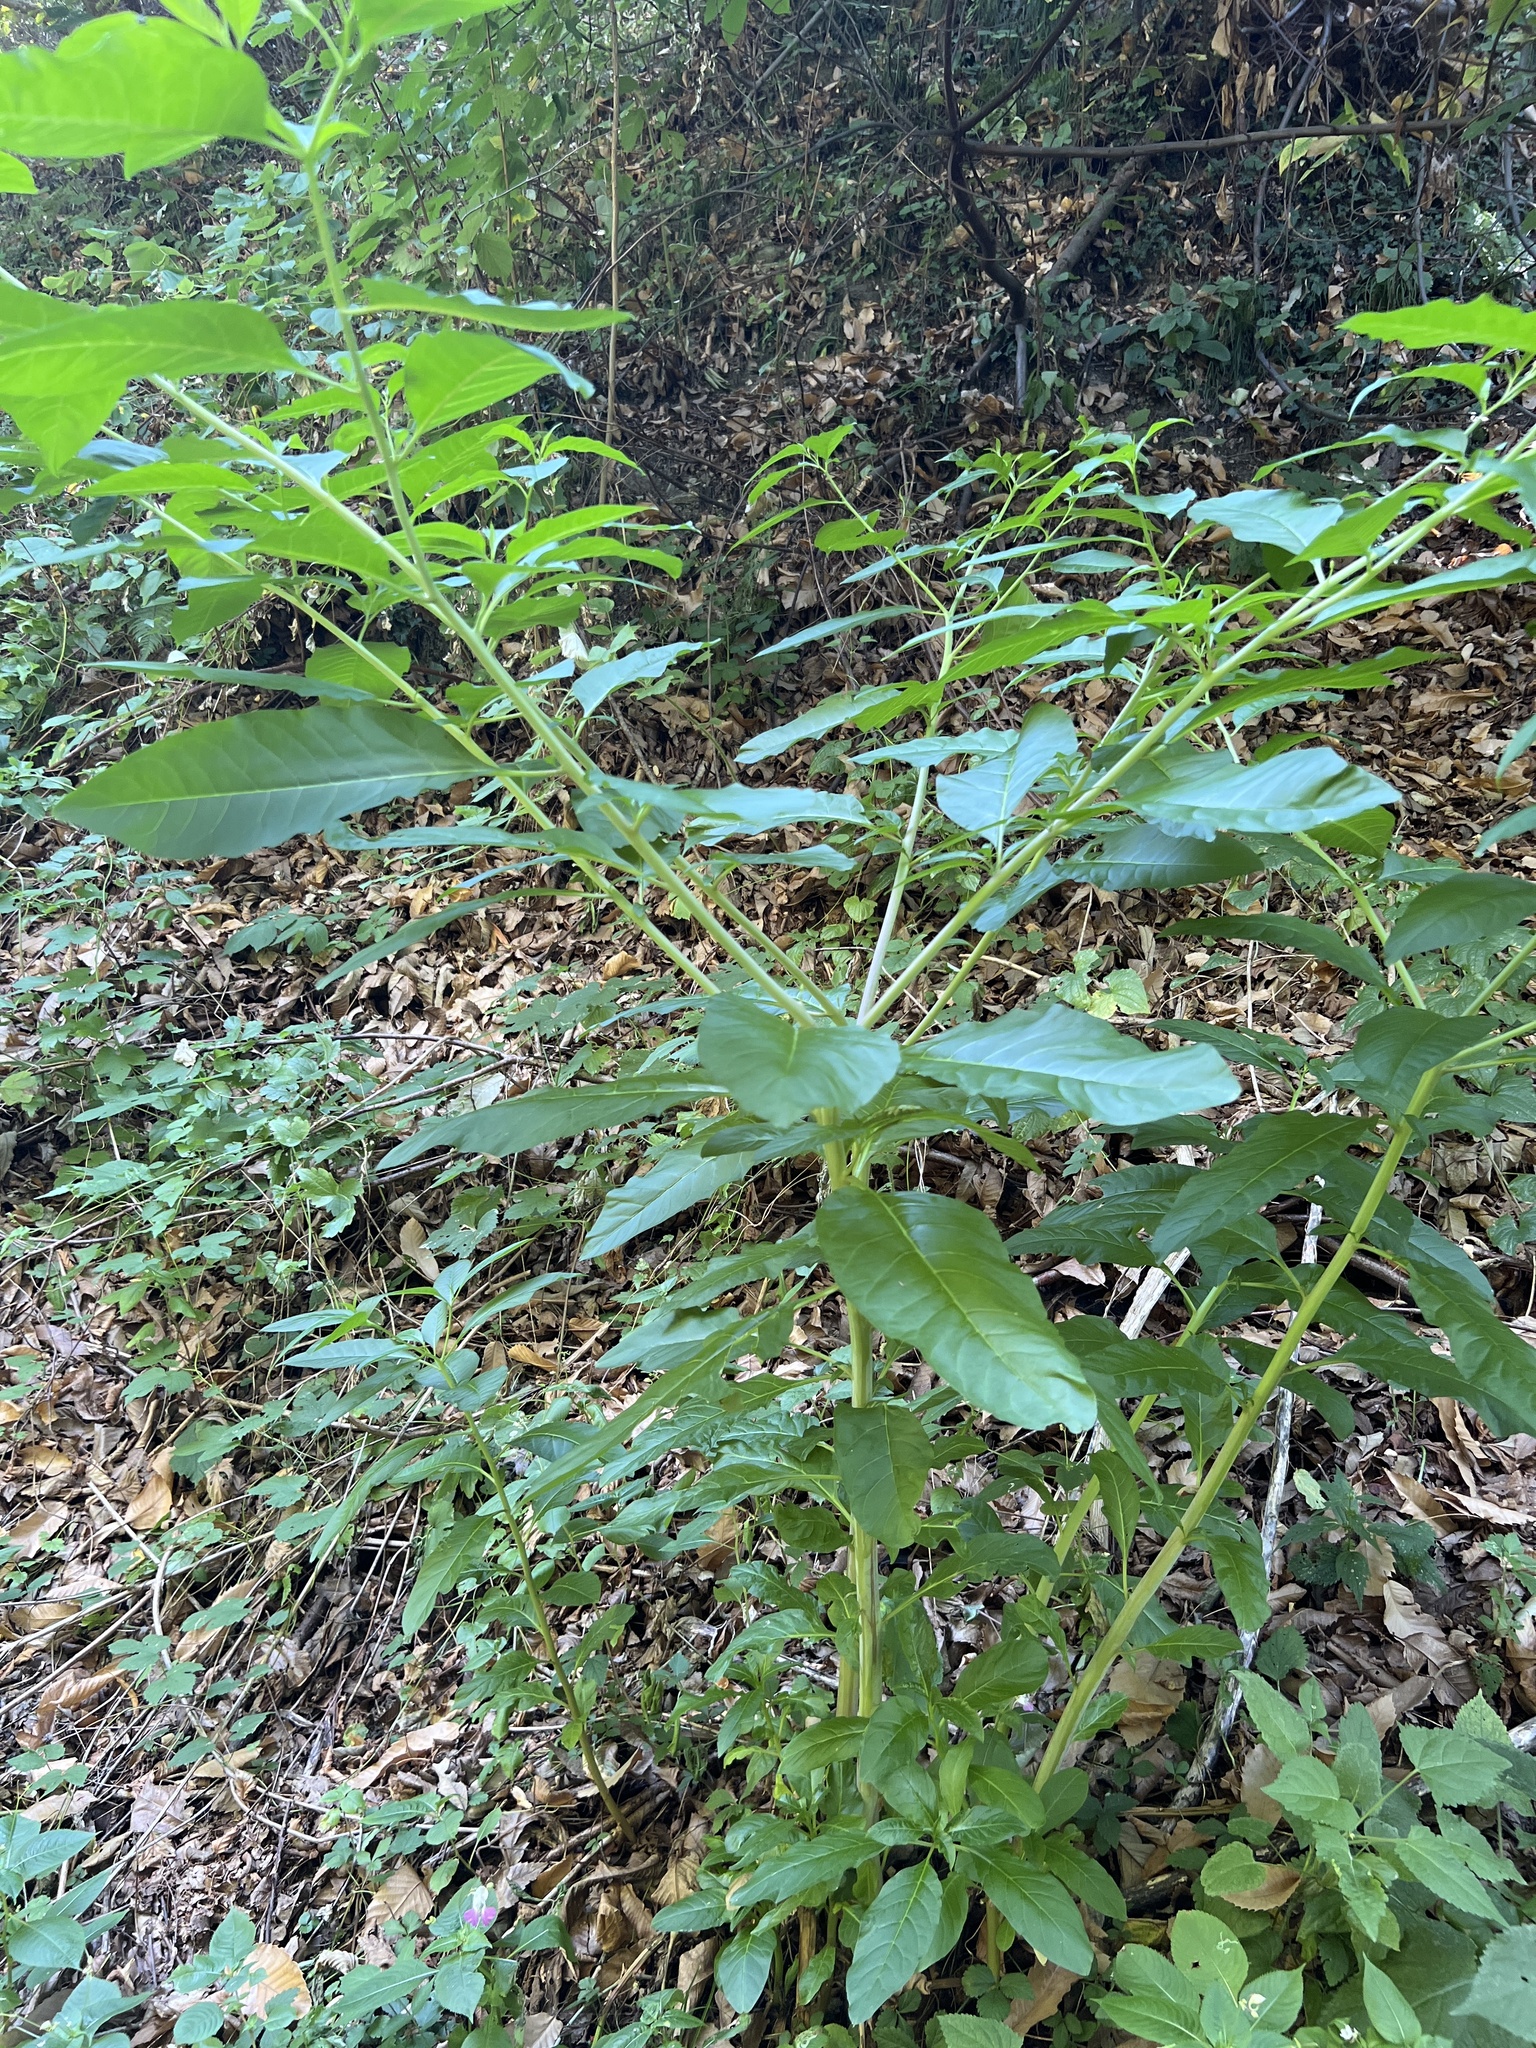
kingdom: Plantae
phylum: Tracheophyta
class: Magnoliopsida
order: Caryophyllales
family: Phytolaccaceae
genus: Phytolacca
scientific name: Phytolacca americana
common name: American pokeweed
